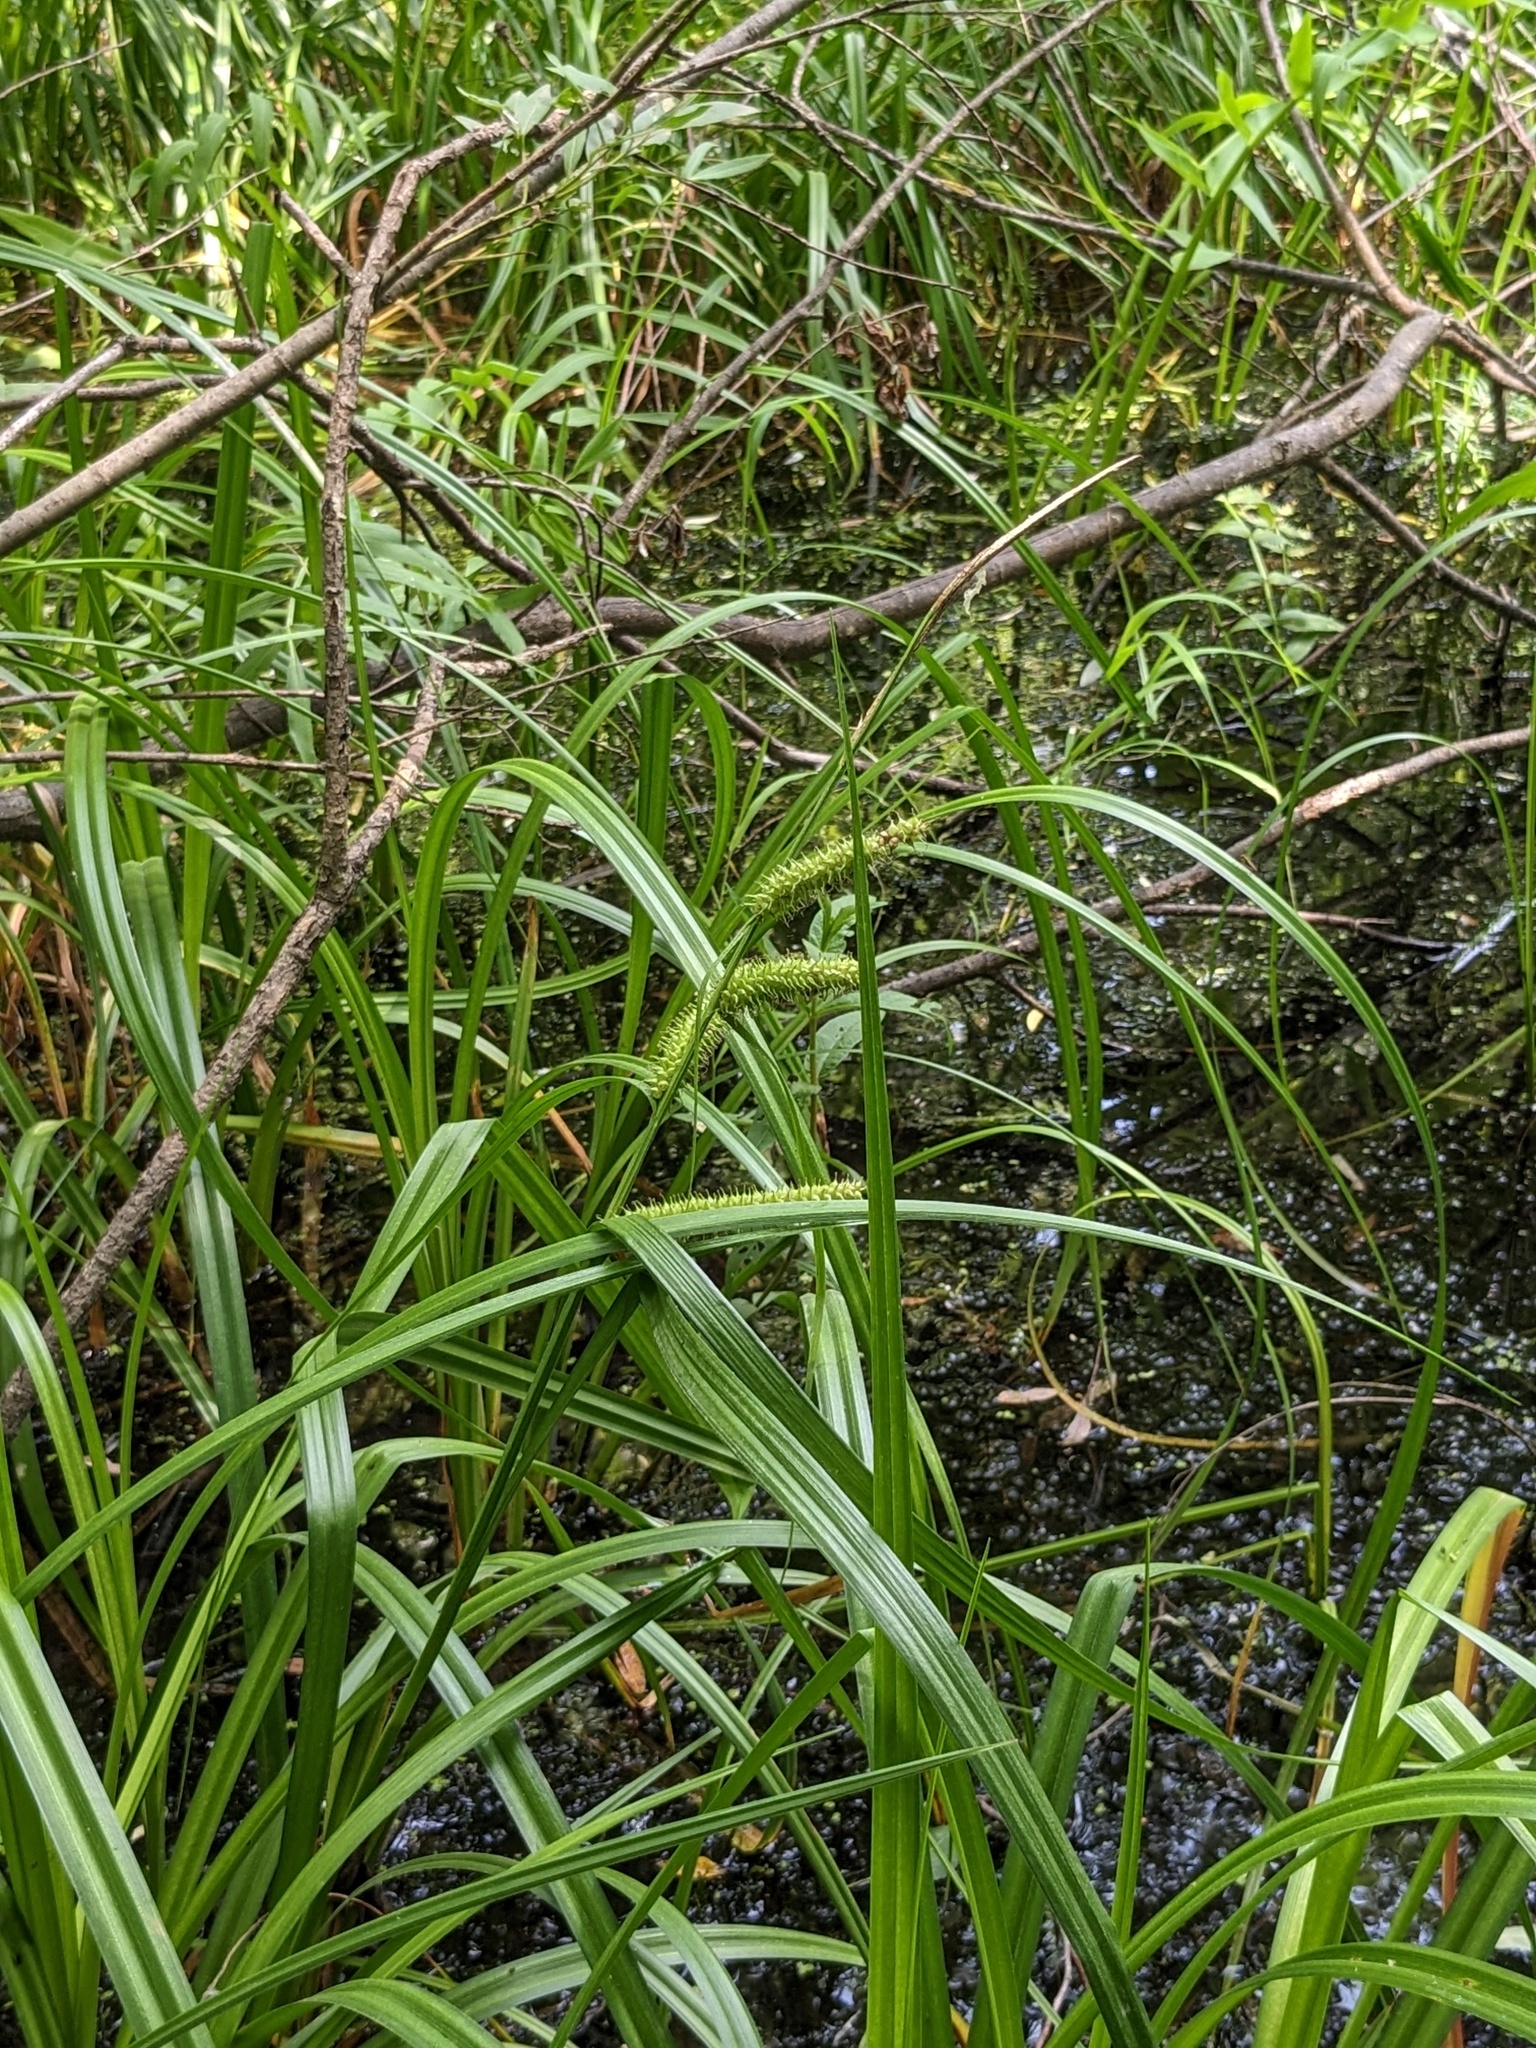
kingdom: Plantae
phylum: Tracheophyta
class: Liliopsida
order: Poales
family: Cyperaceae
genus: Carex
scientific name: Carex utriculata
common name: Beaked sedge
